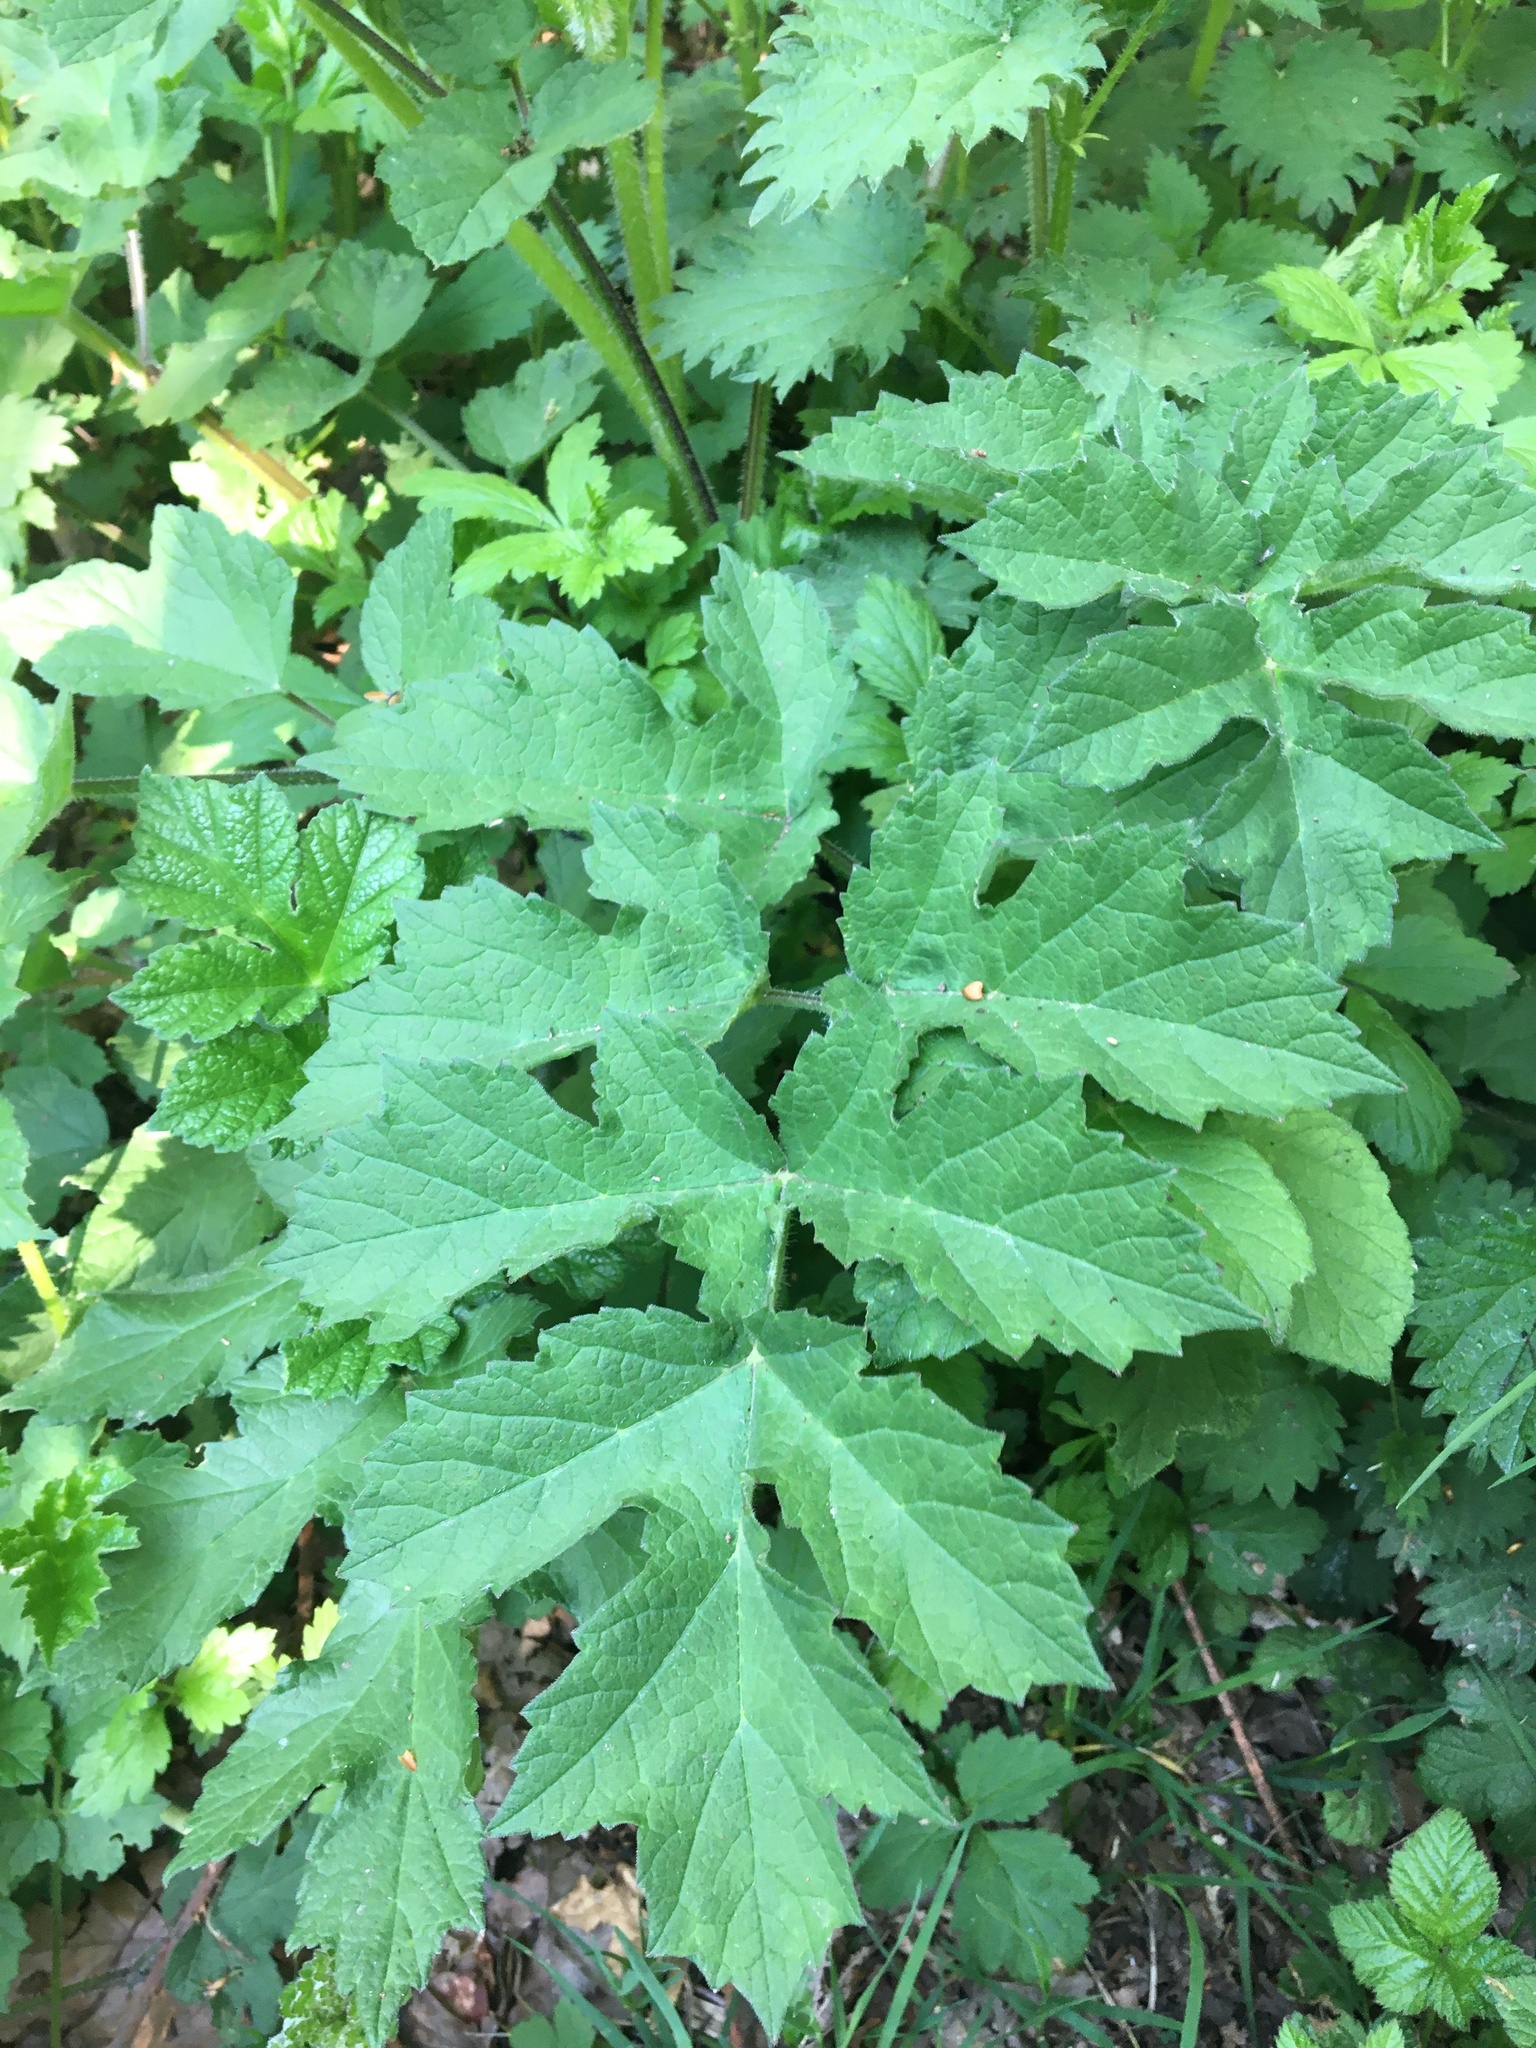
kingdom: Plantae
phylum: Tracheophyta
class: Magnoliopsida
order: Apiales
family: Apiaceae
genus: Heracleum
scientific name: Heracleum sphondylium
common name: Hogweed
